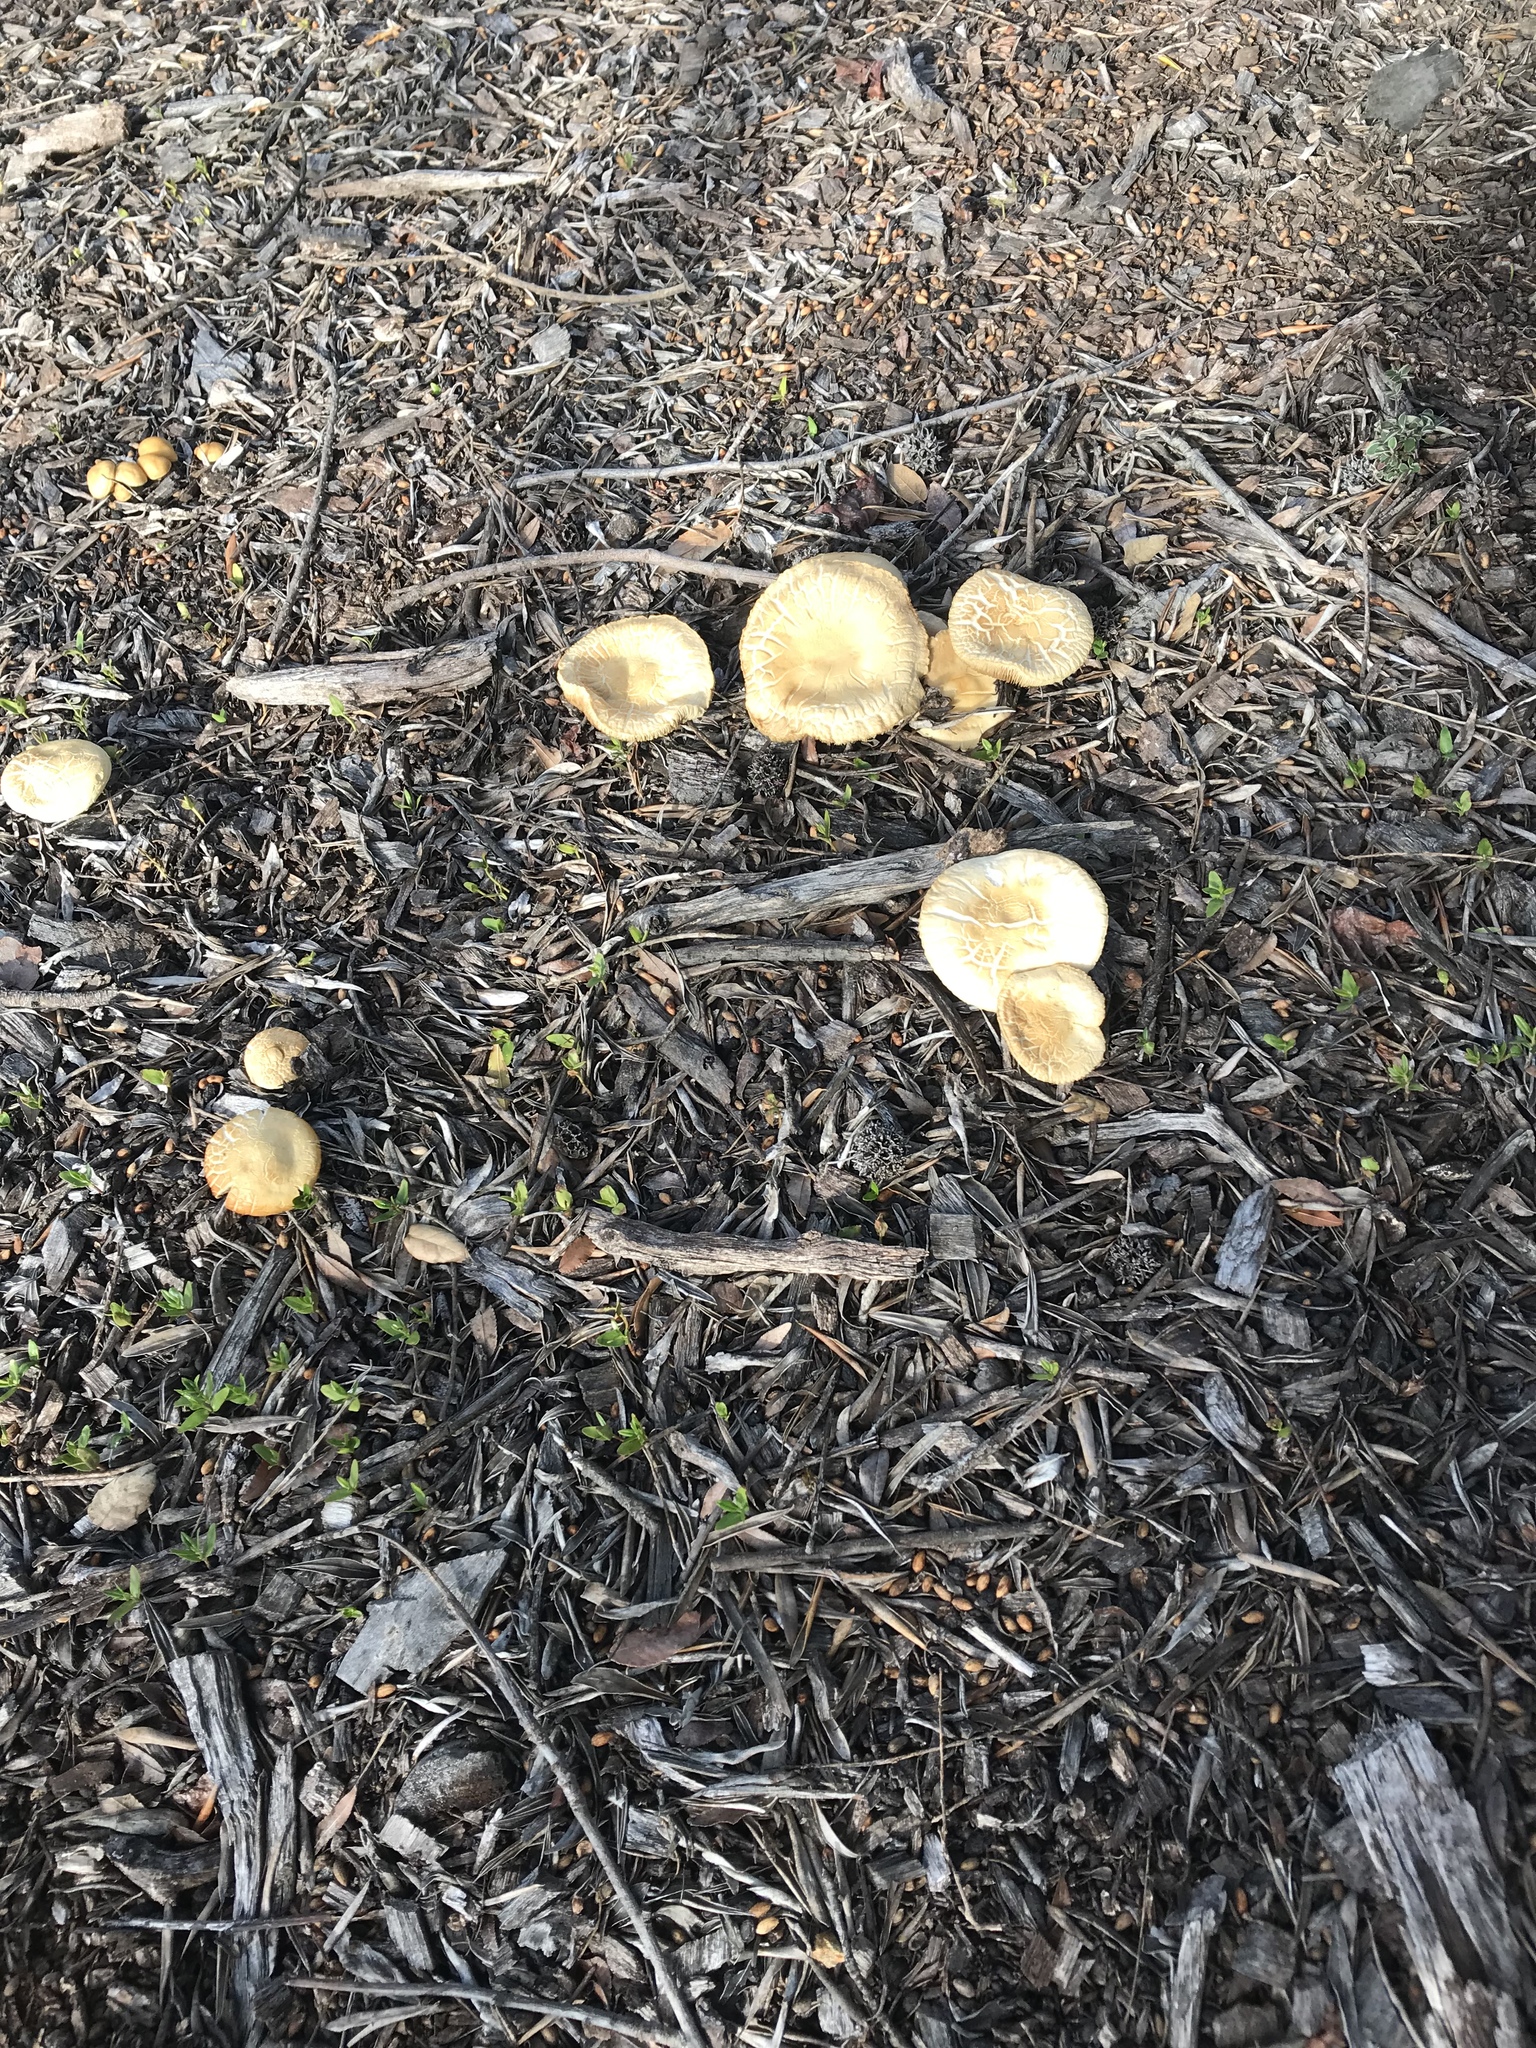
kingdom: Fungi
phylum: Basidiomycota
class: Agaricomycetes
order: Agaricales
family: Strophariaceae
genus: Agrocybe
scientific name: Agrocybe praecox
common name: Spring fieldcap
